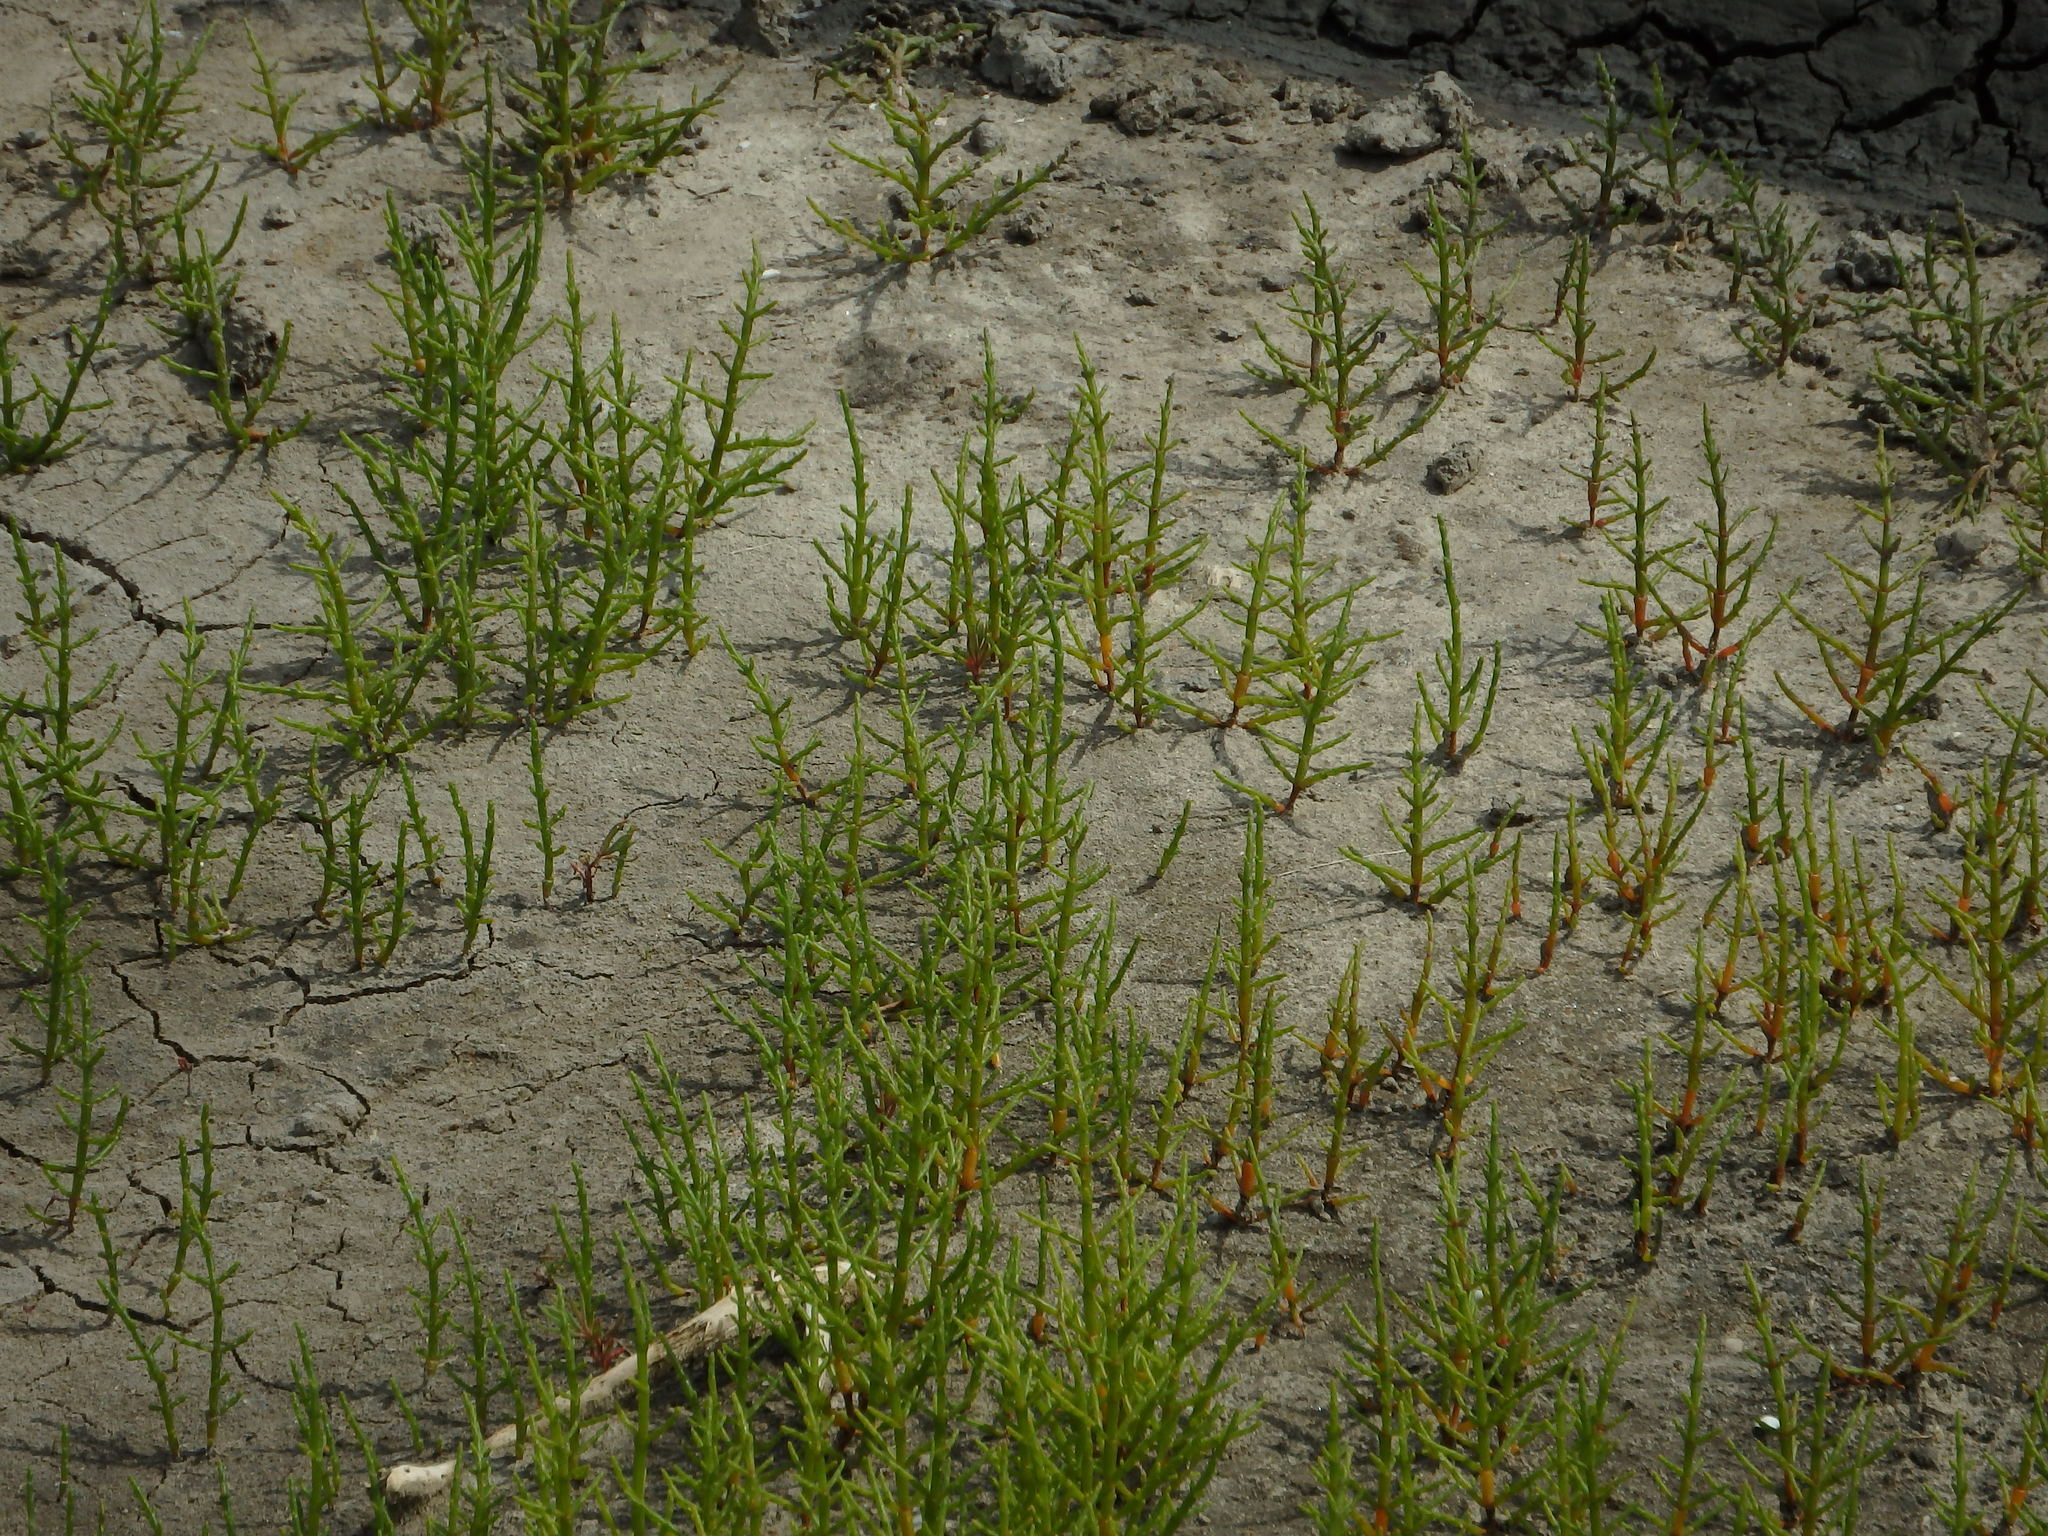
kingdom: Plantae
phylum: Tracheophyta
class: Magnoliopsida
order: Caryophyllales
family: Amaranthaceae
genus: Salicornia
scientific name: Salicornia europaea
